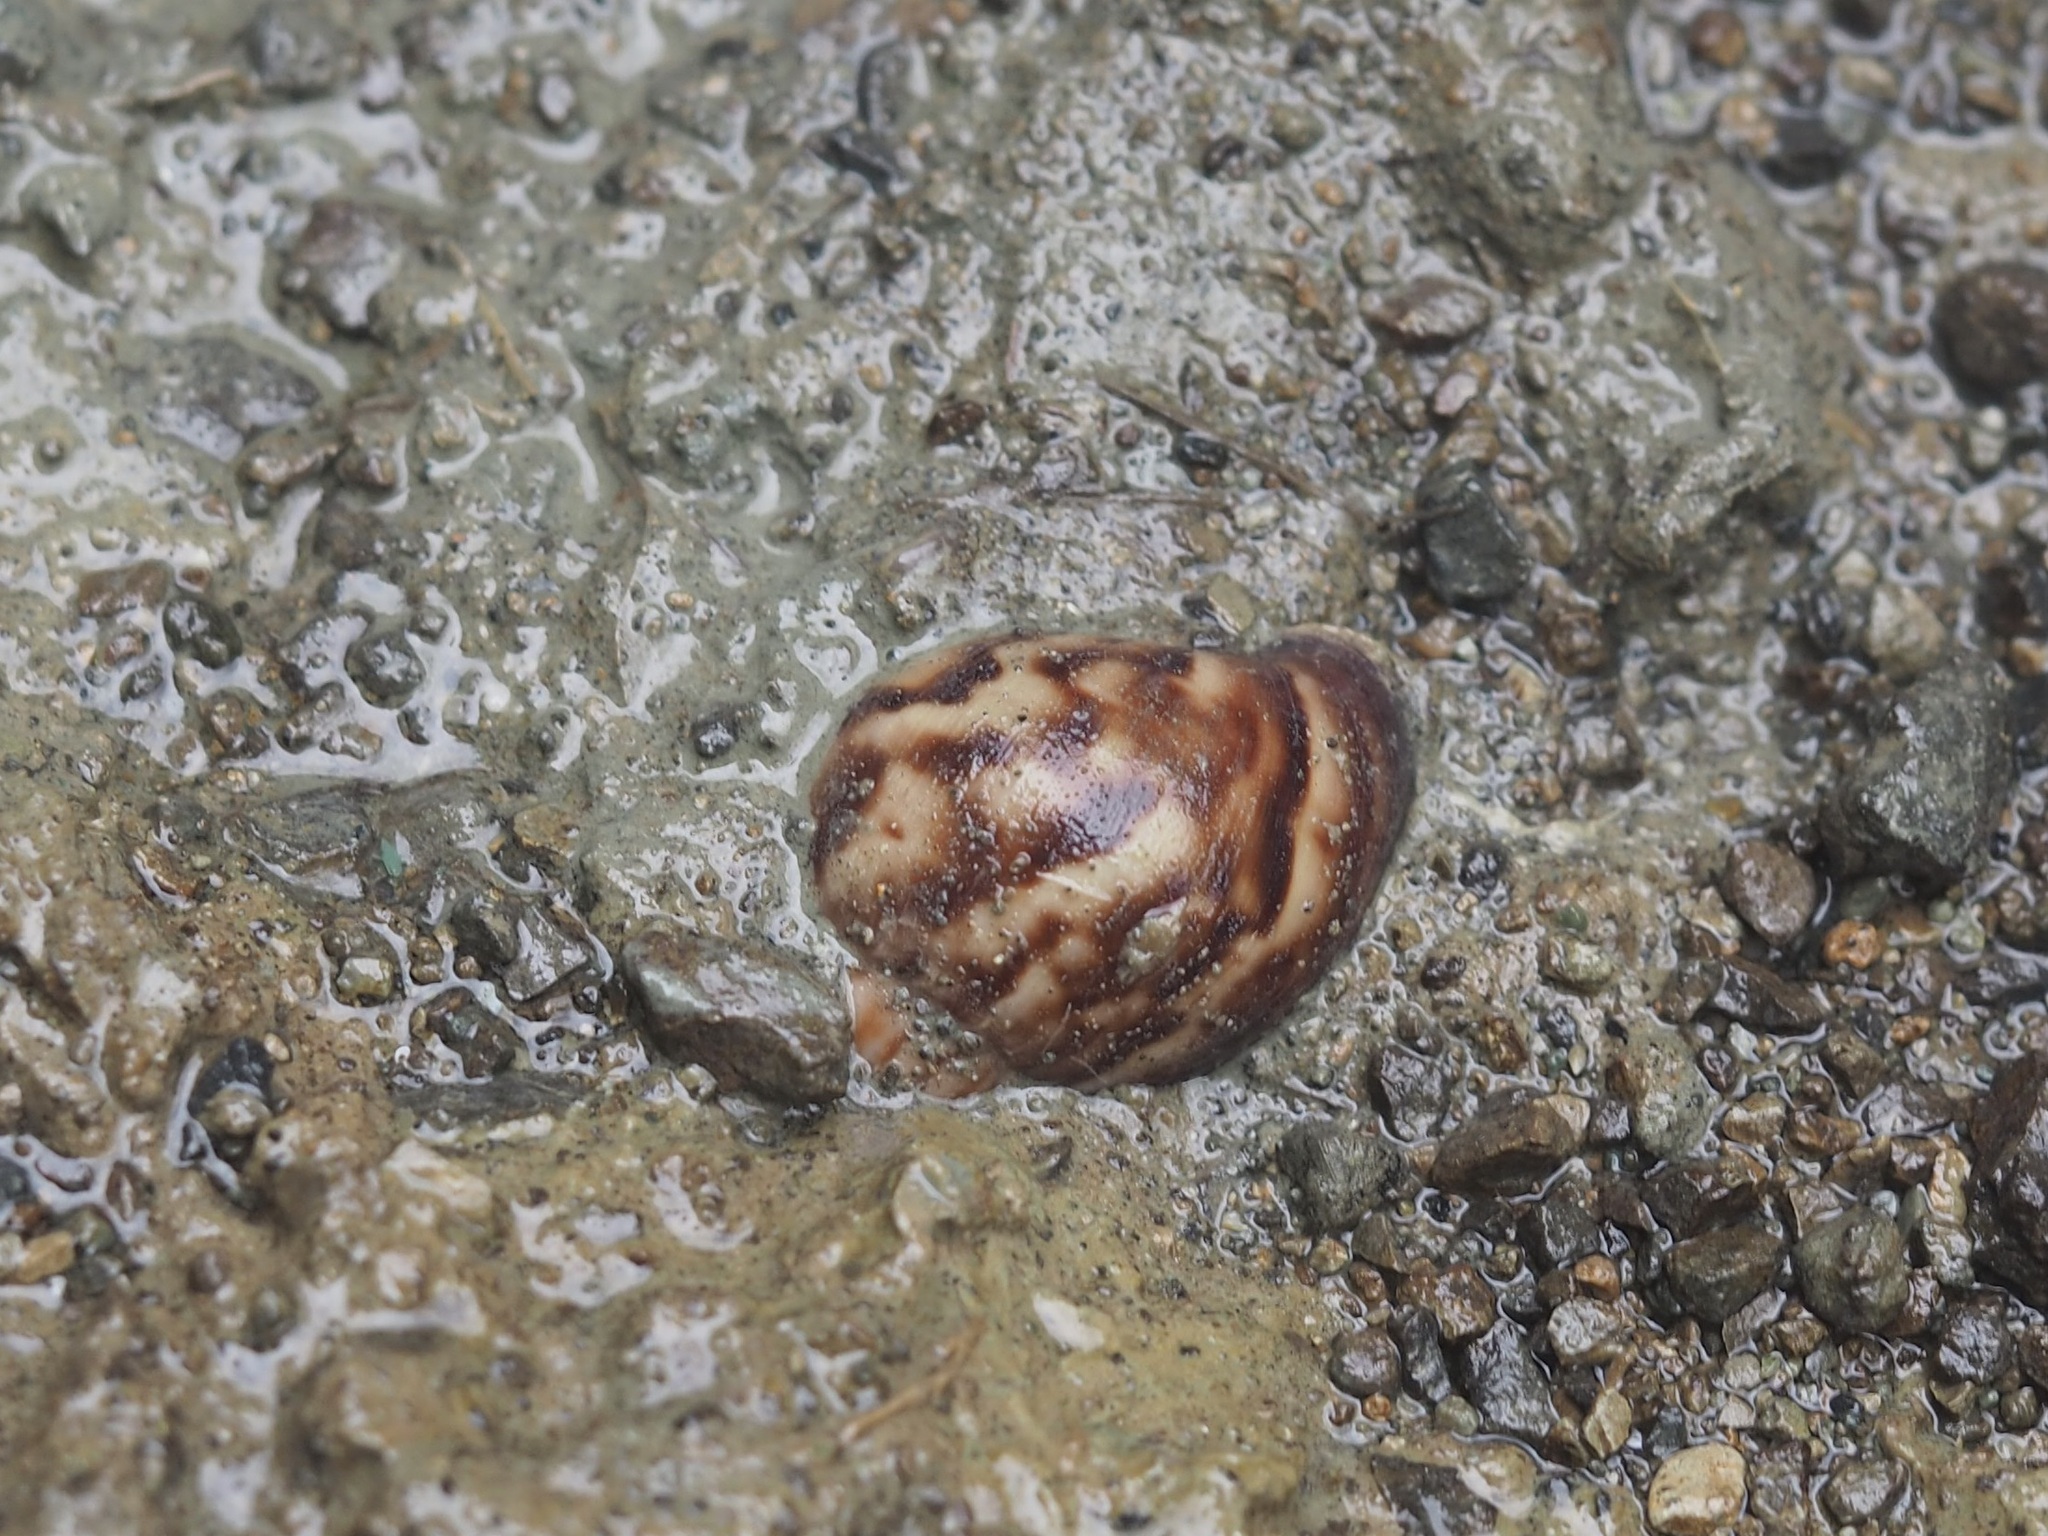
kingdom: Animalia
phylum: Mollusca
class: Gastropoda
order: Stylommatophora
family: Achatinidae
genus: Lissachatina
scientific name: Lissachatina fulica
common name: Giant african snail
